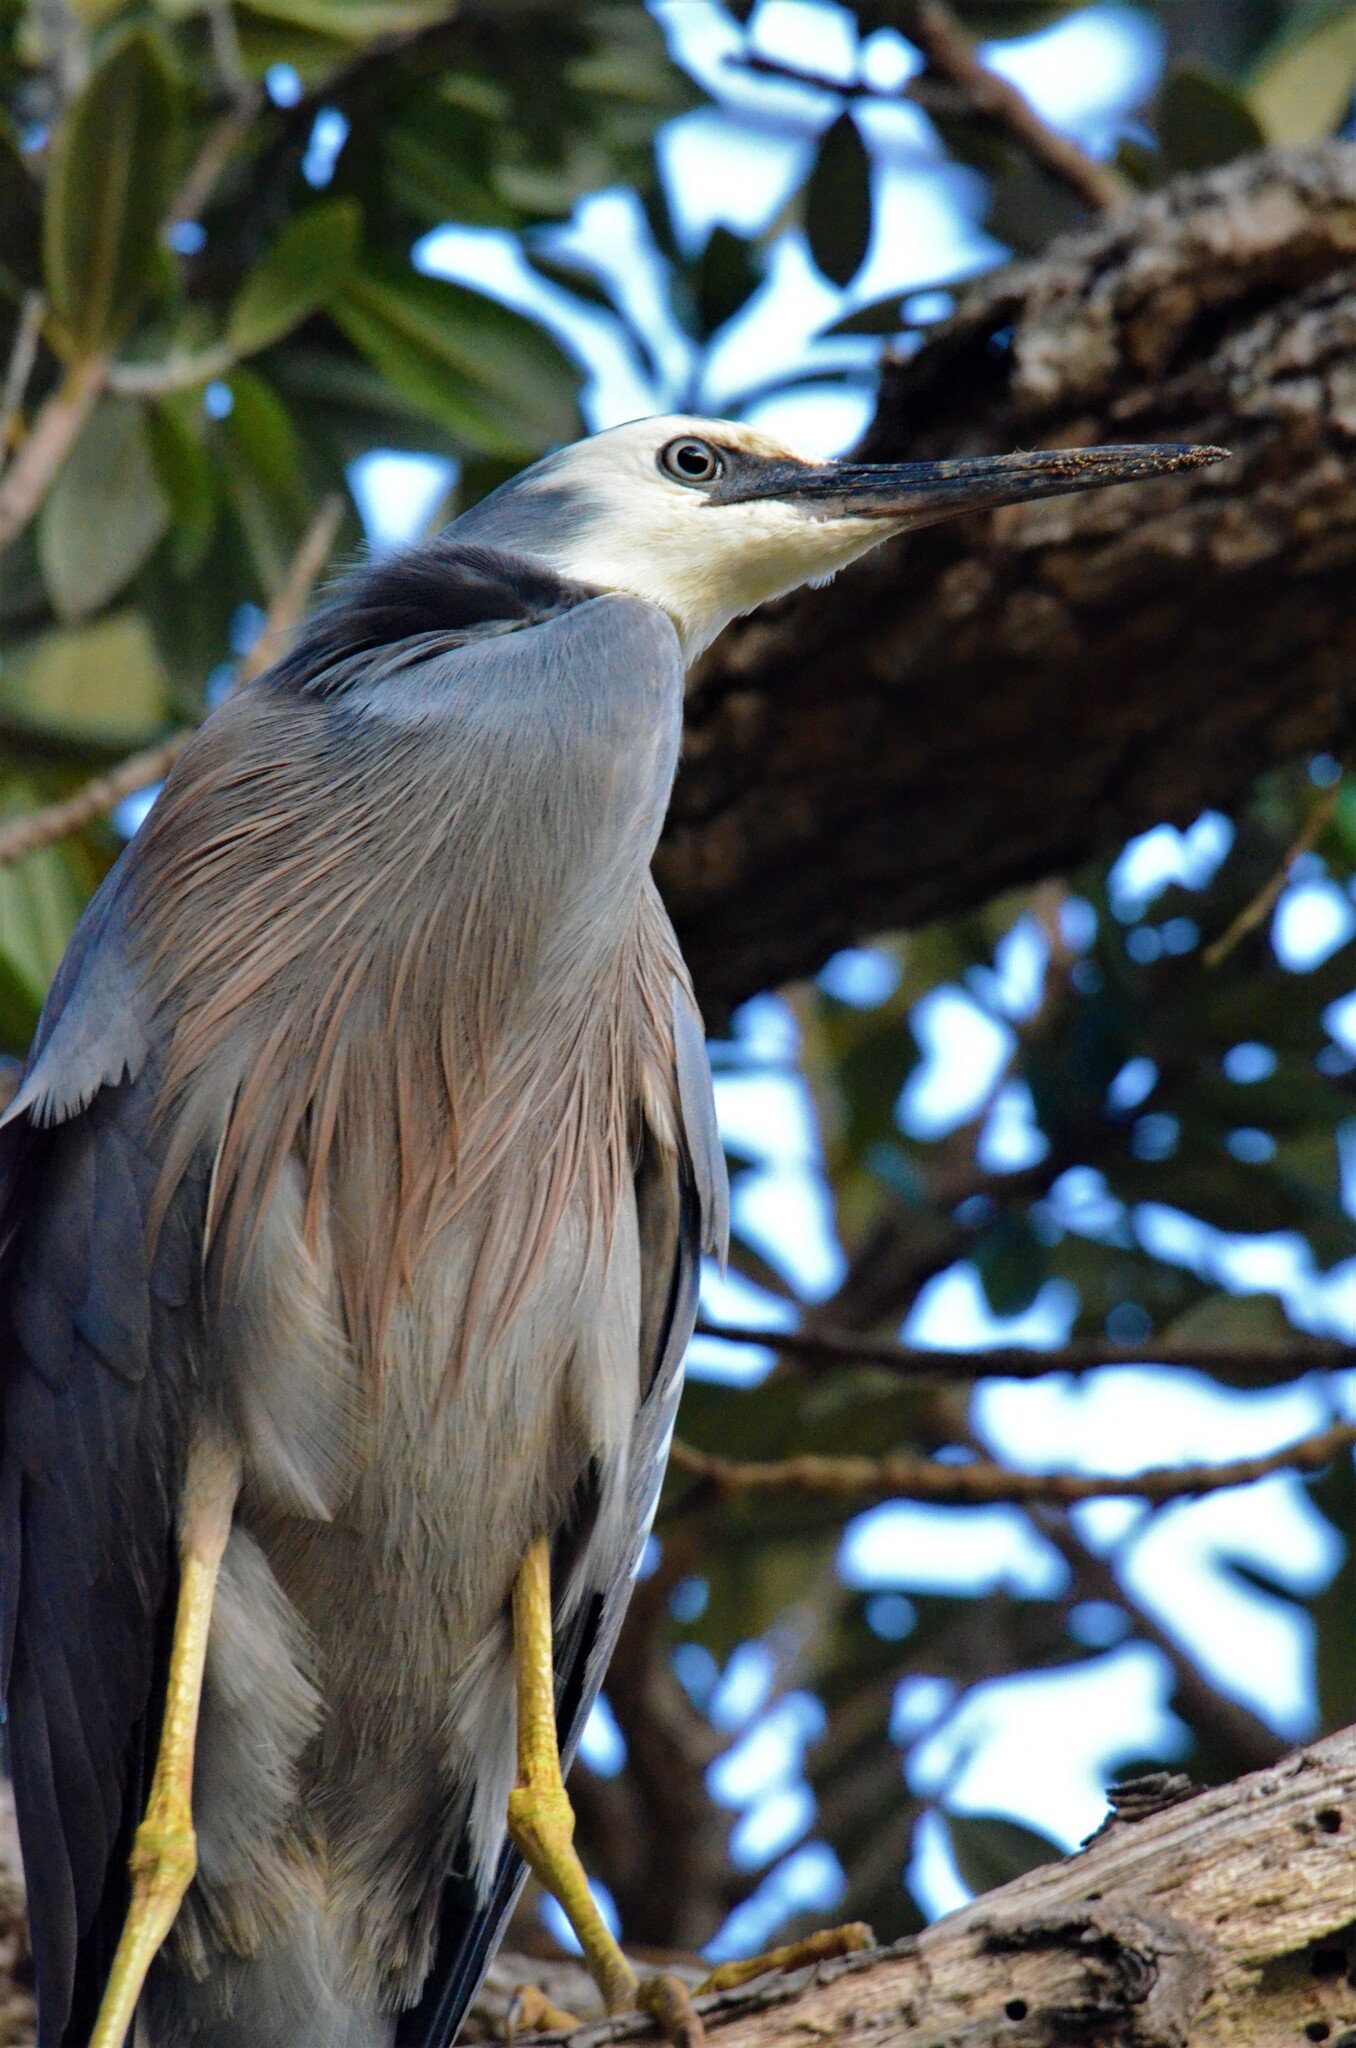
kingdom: Animalia
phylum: Chordata
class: Aves
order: Pelecaniformes
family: Ardeidae
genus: Egretta
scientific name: Egretta novaehollandiae
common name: White-faced heron
